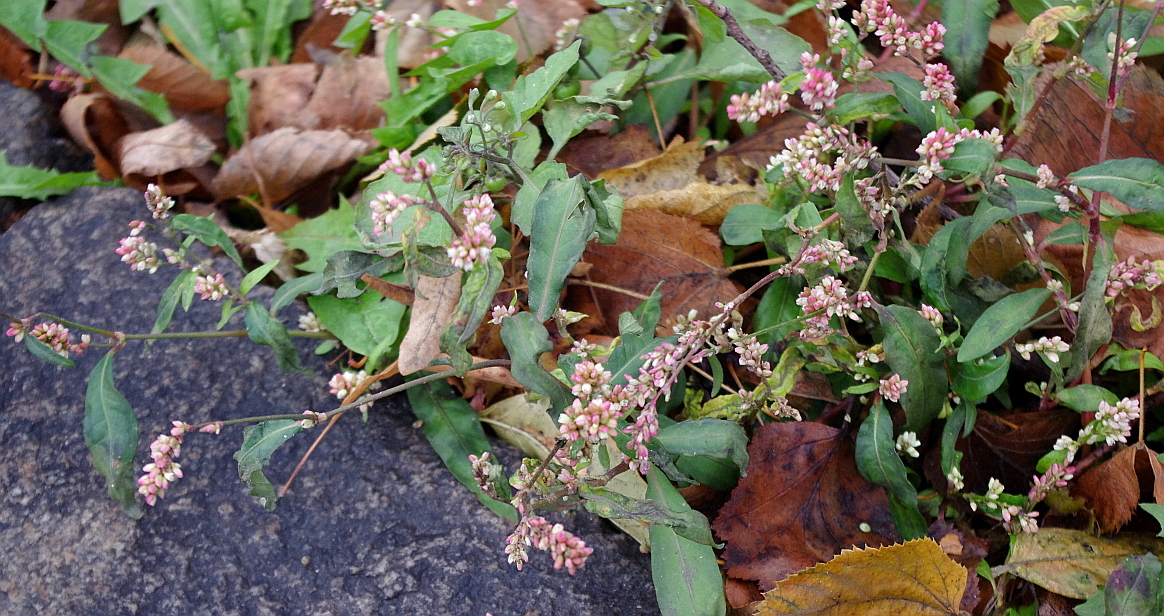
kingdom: Plantae
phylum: Tracheophyta
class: Magnoliopsida
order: Caryophyllales
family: Polygonaceae
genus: Persicaria
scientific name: Persicaria lapathifolia
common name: Curlytop knotweed
